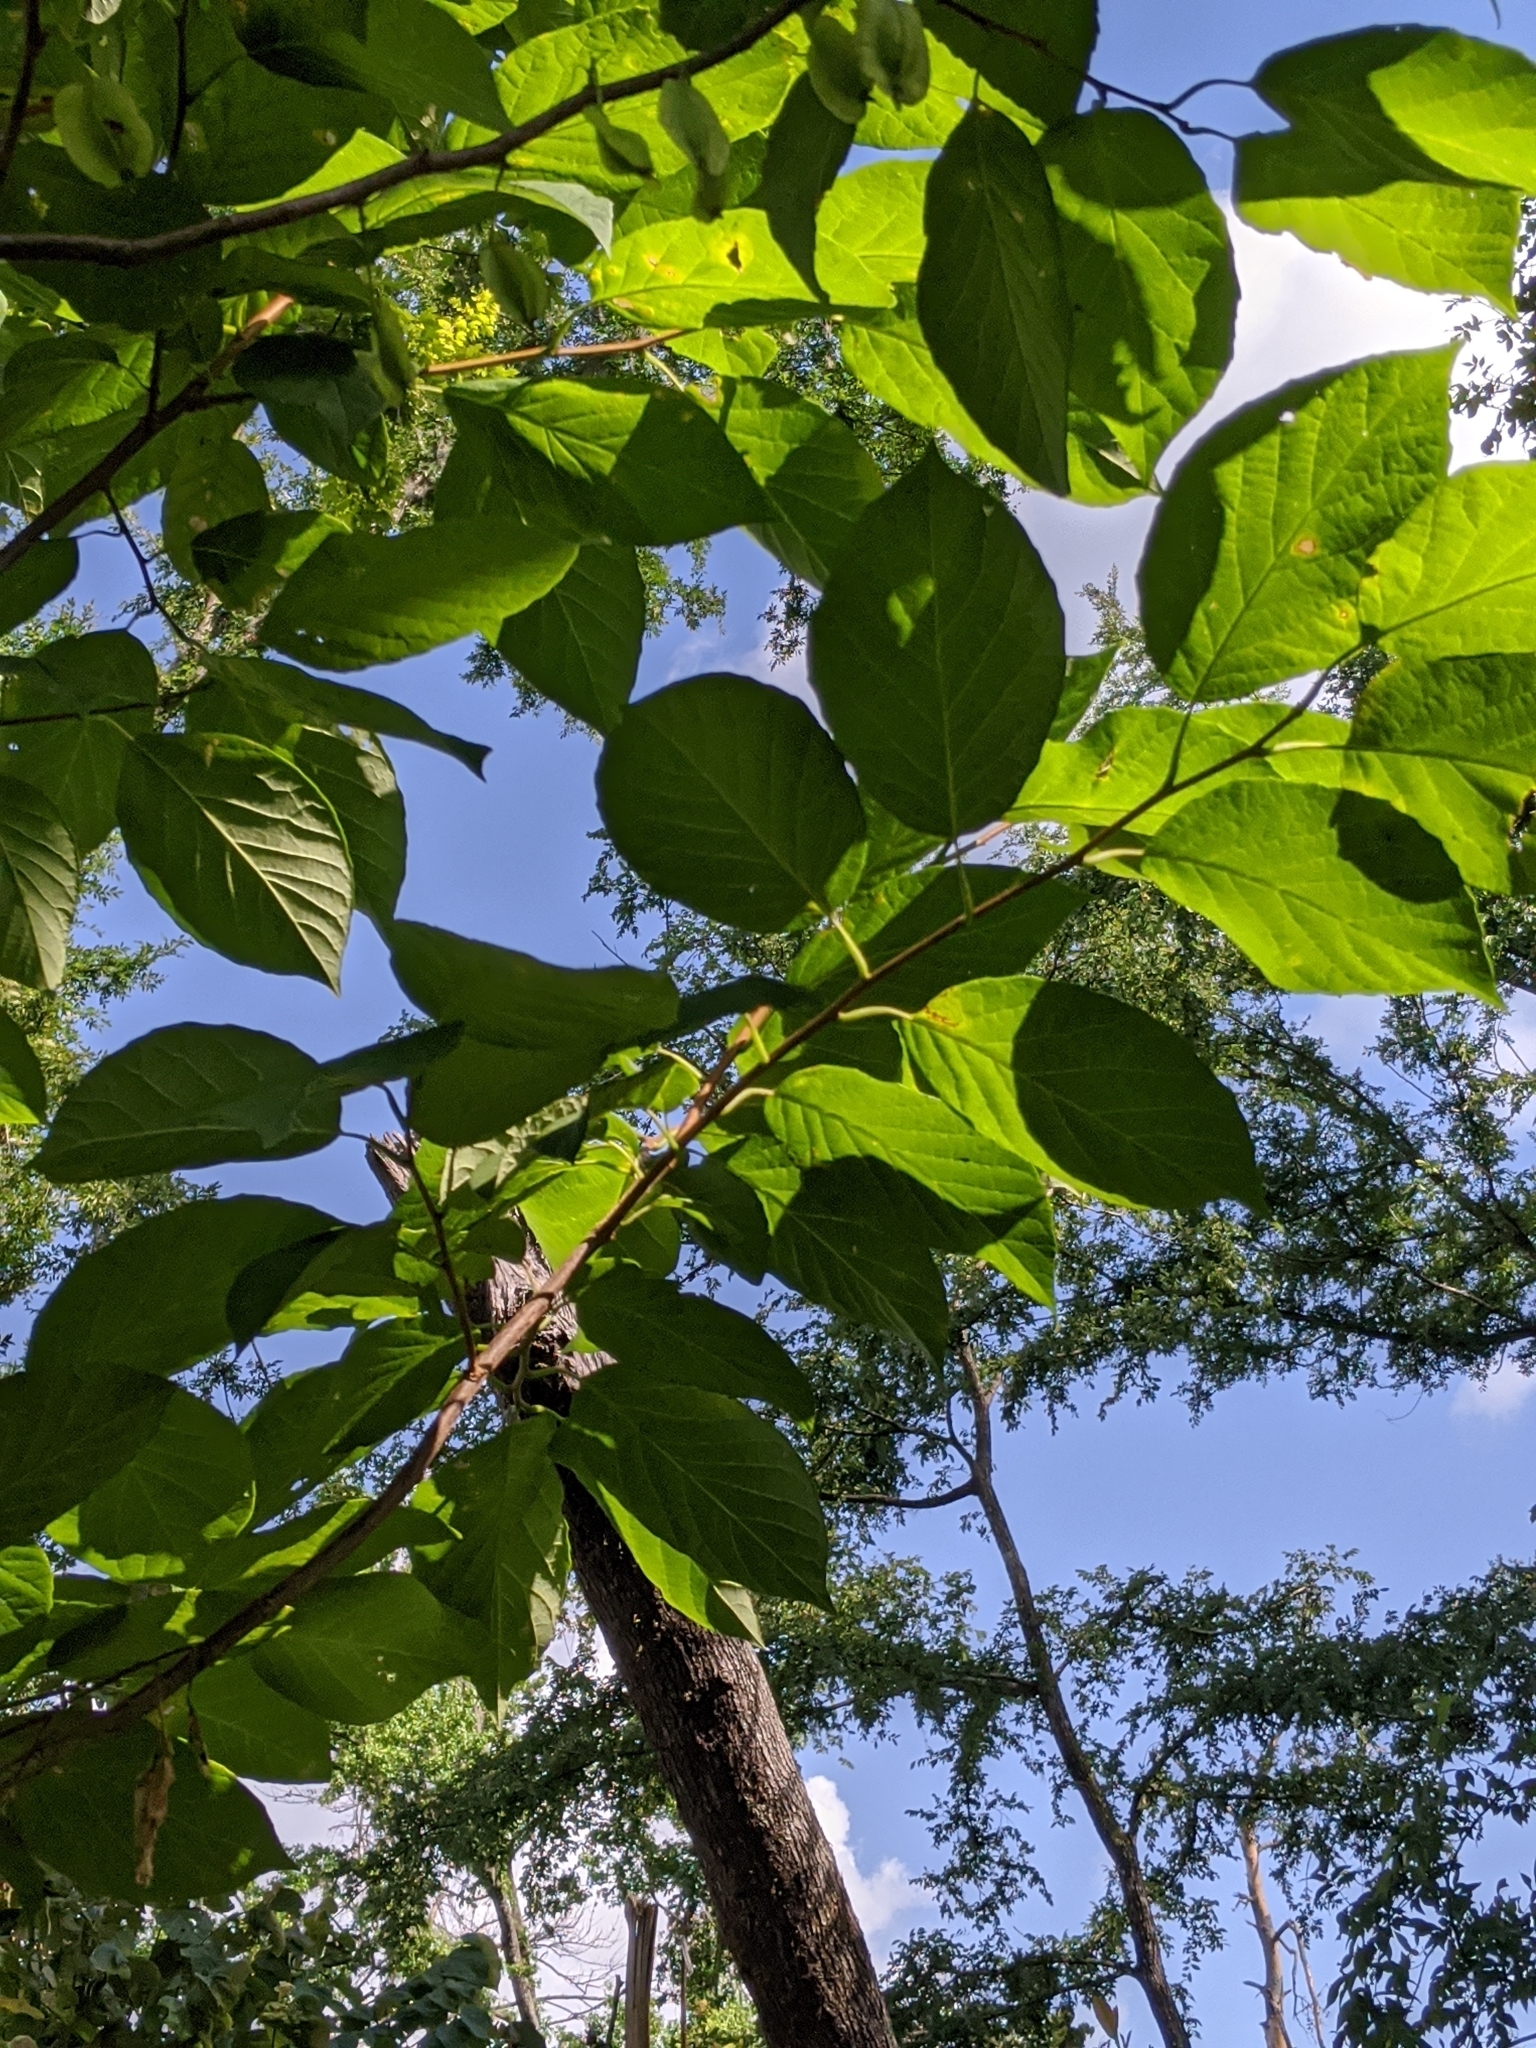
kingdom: Plantae
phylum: Tracheophyta
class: Magnoliopsida
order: Ericales
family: Styracaceae
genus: Halesia
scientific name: Halesia diptera
